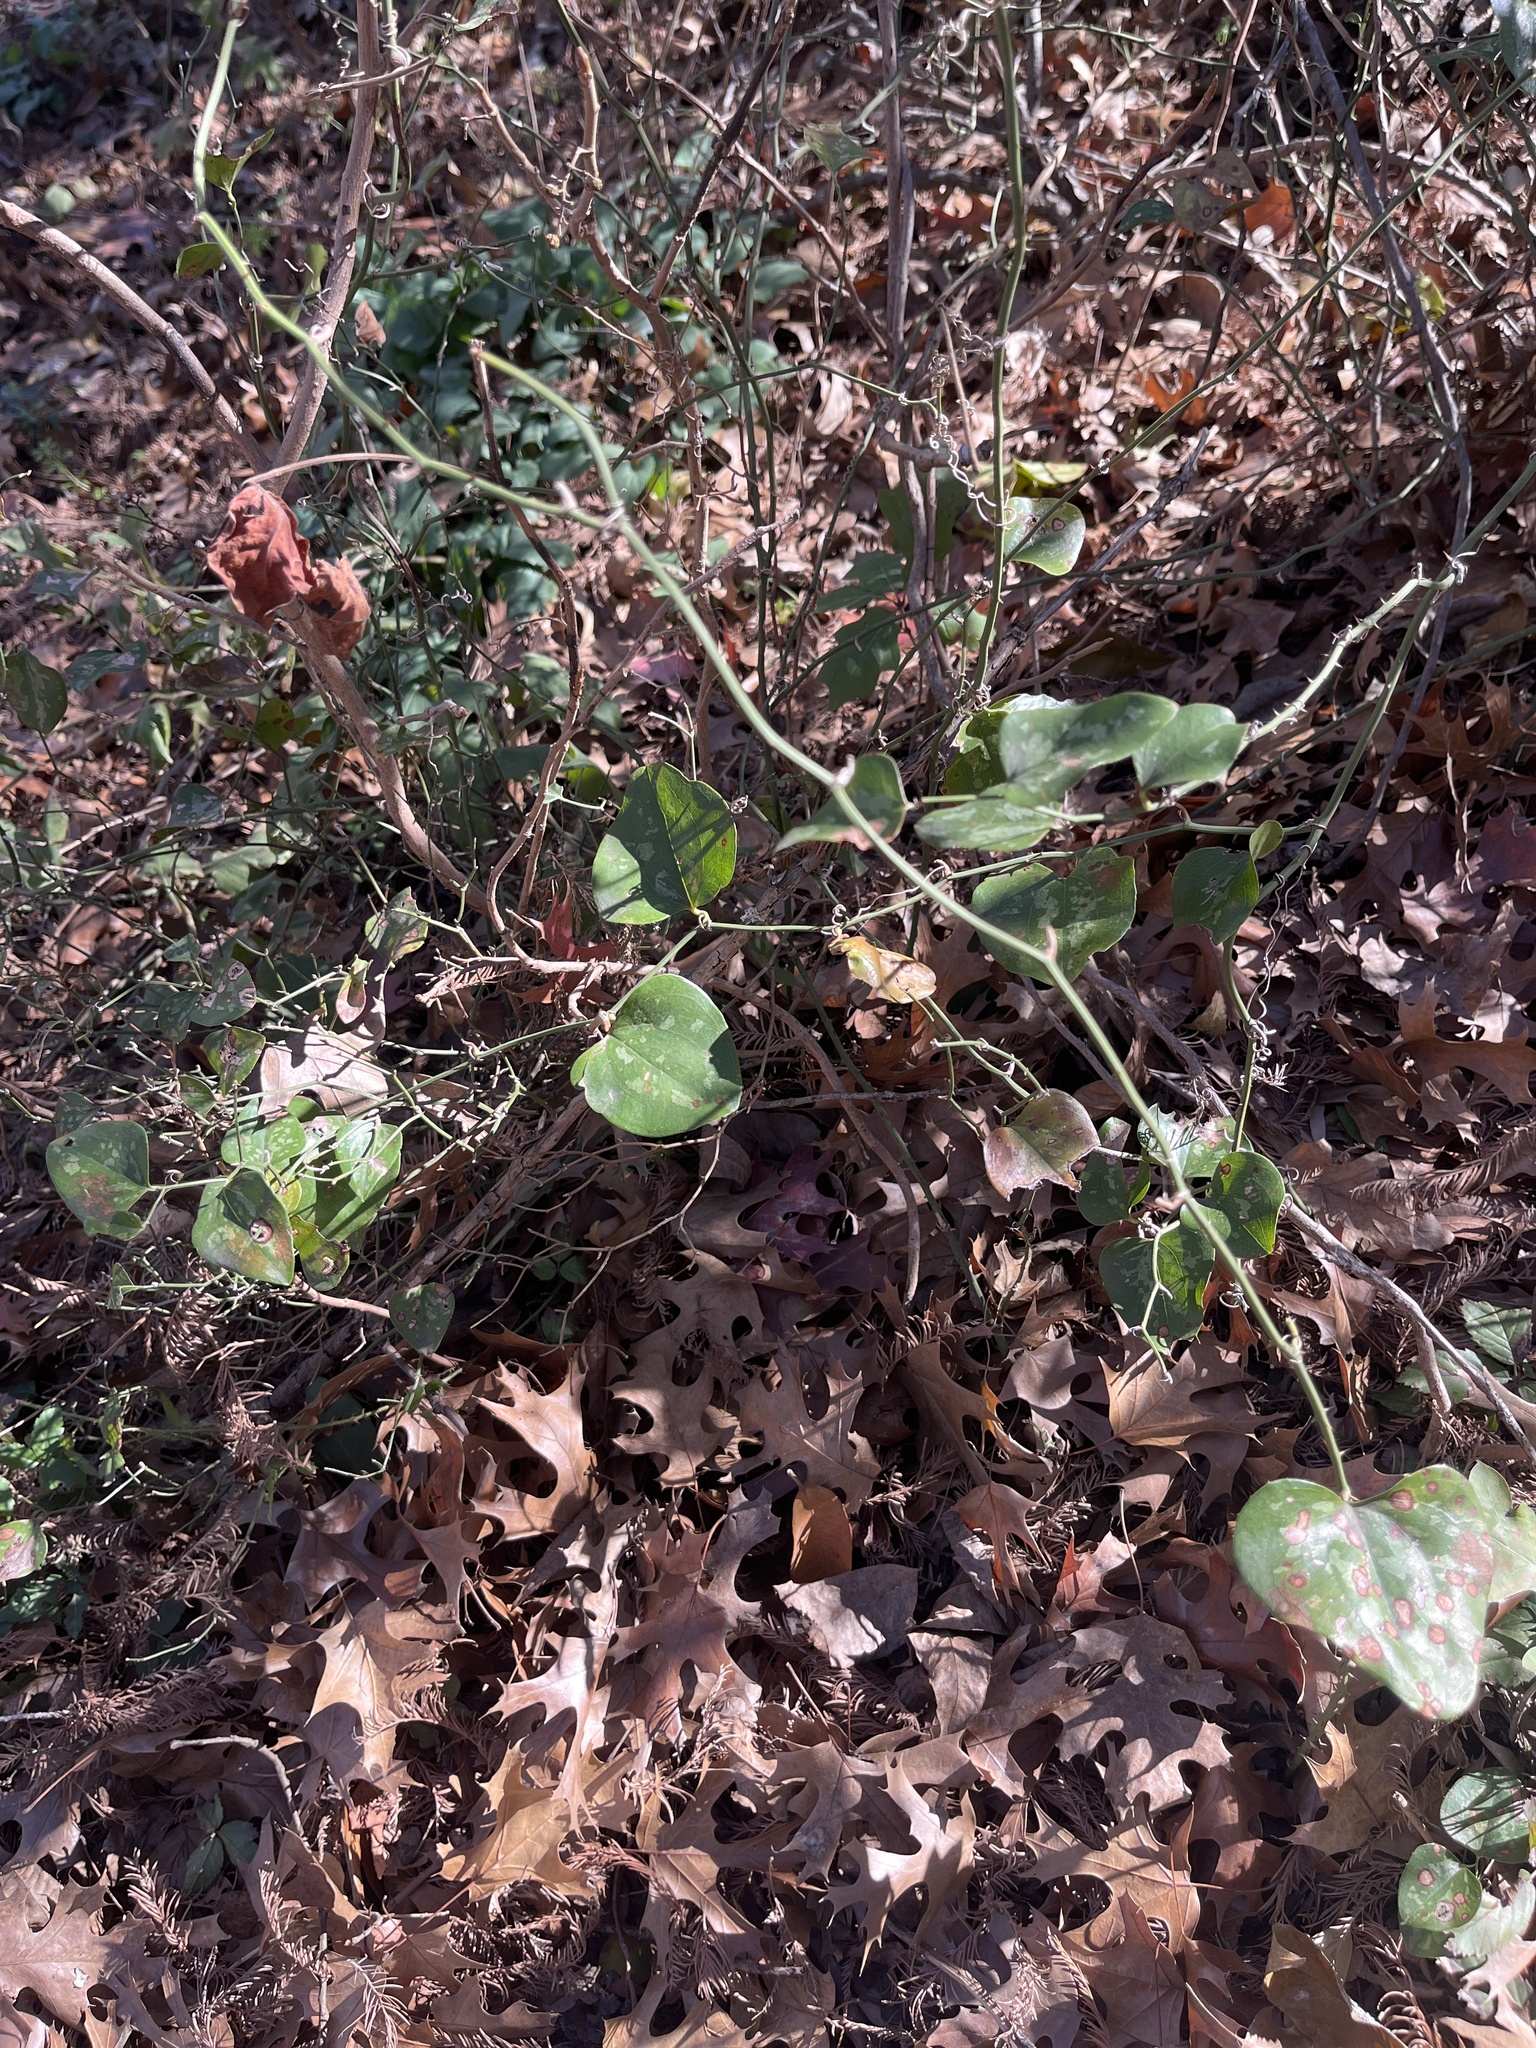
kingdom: Plantae
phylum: Tracheophyta
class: Liliopsida
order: Liliales
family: Smilacaceae
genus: Smilax
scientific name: Smilax bona-nox
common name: Catbrier
